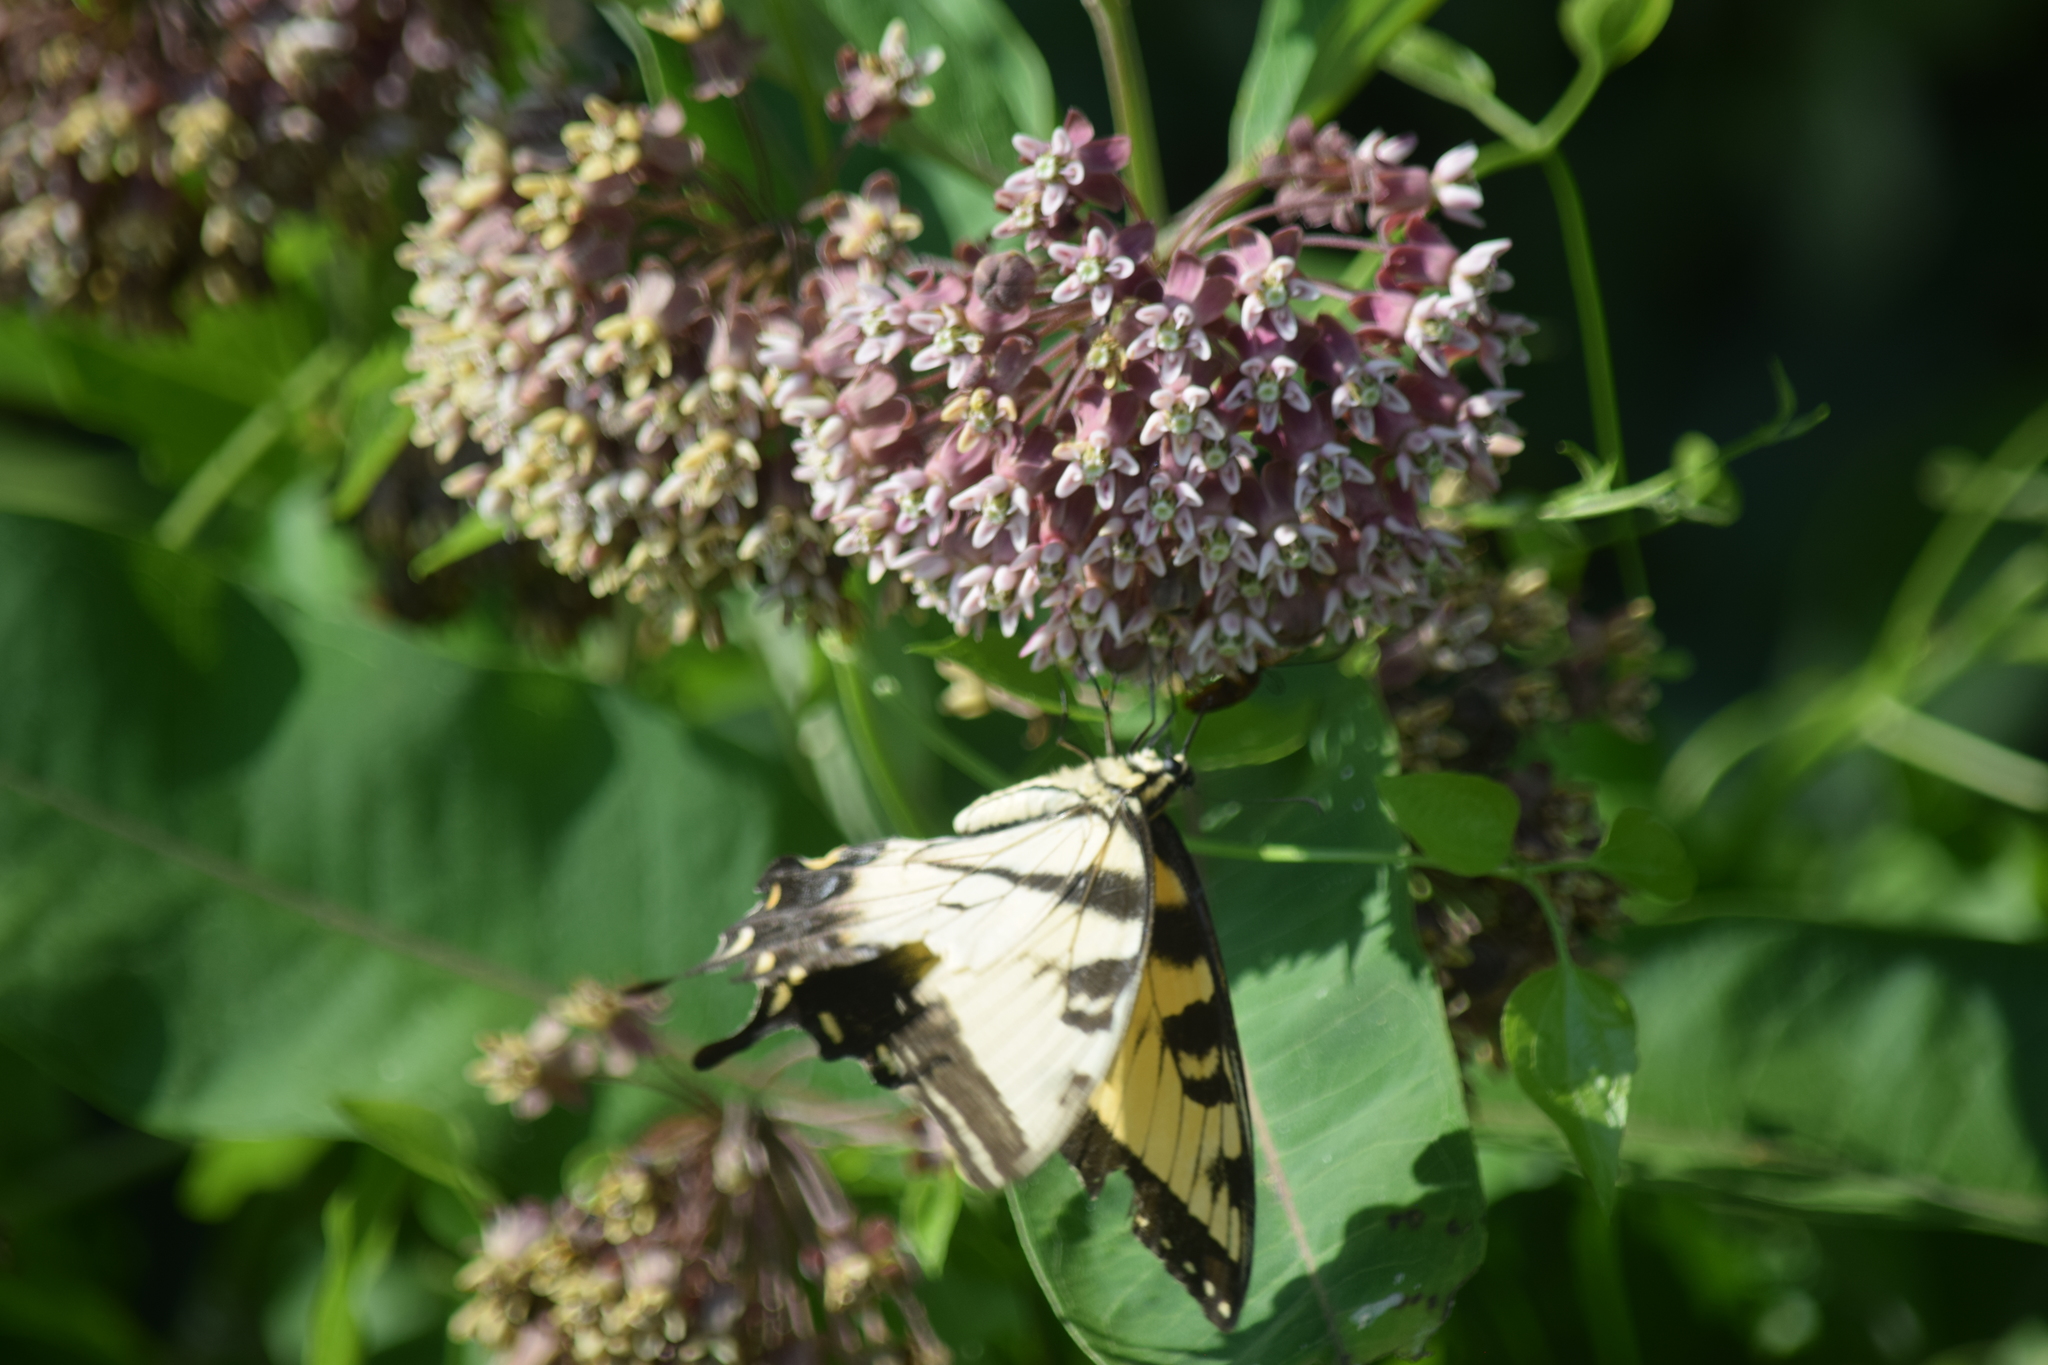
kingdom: Animalia
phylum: Arthropoda
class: Insecta
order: Lepidoptera
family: Papilionidae
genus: Papilio
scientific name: Papilio glaucus
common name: Tiger swallowtail
